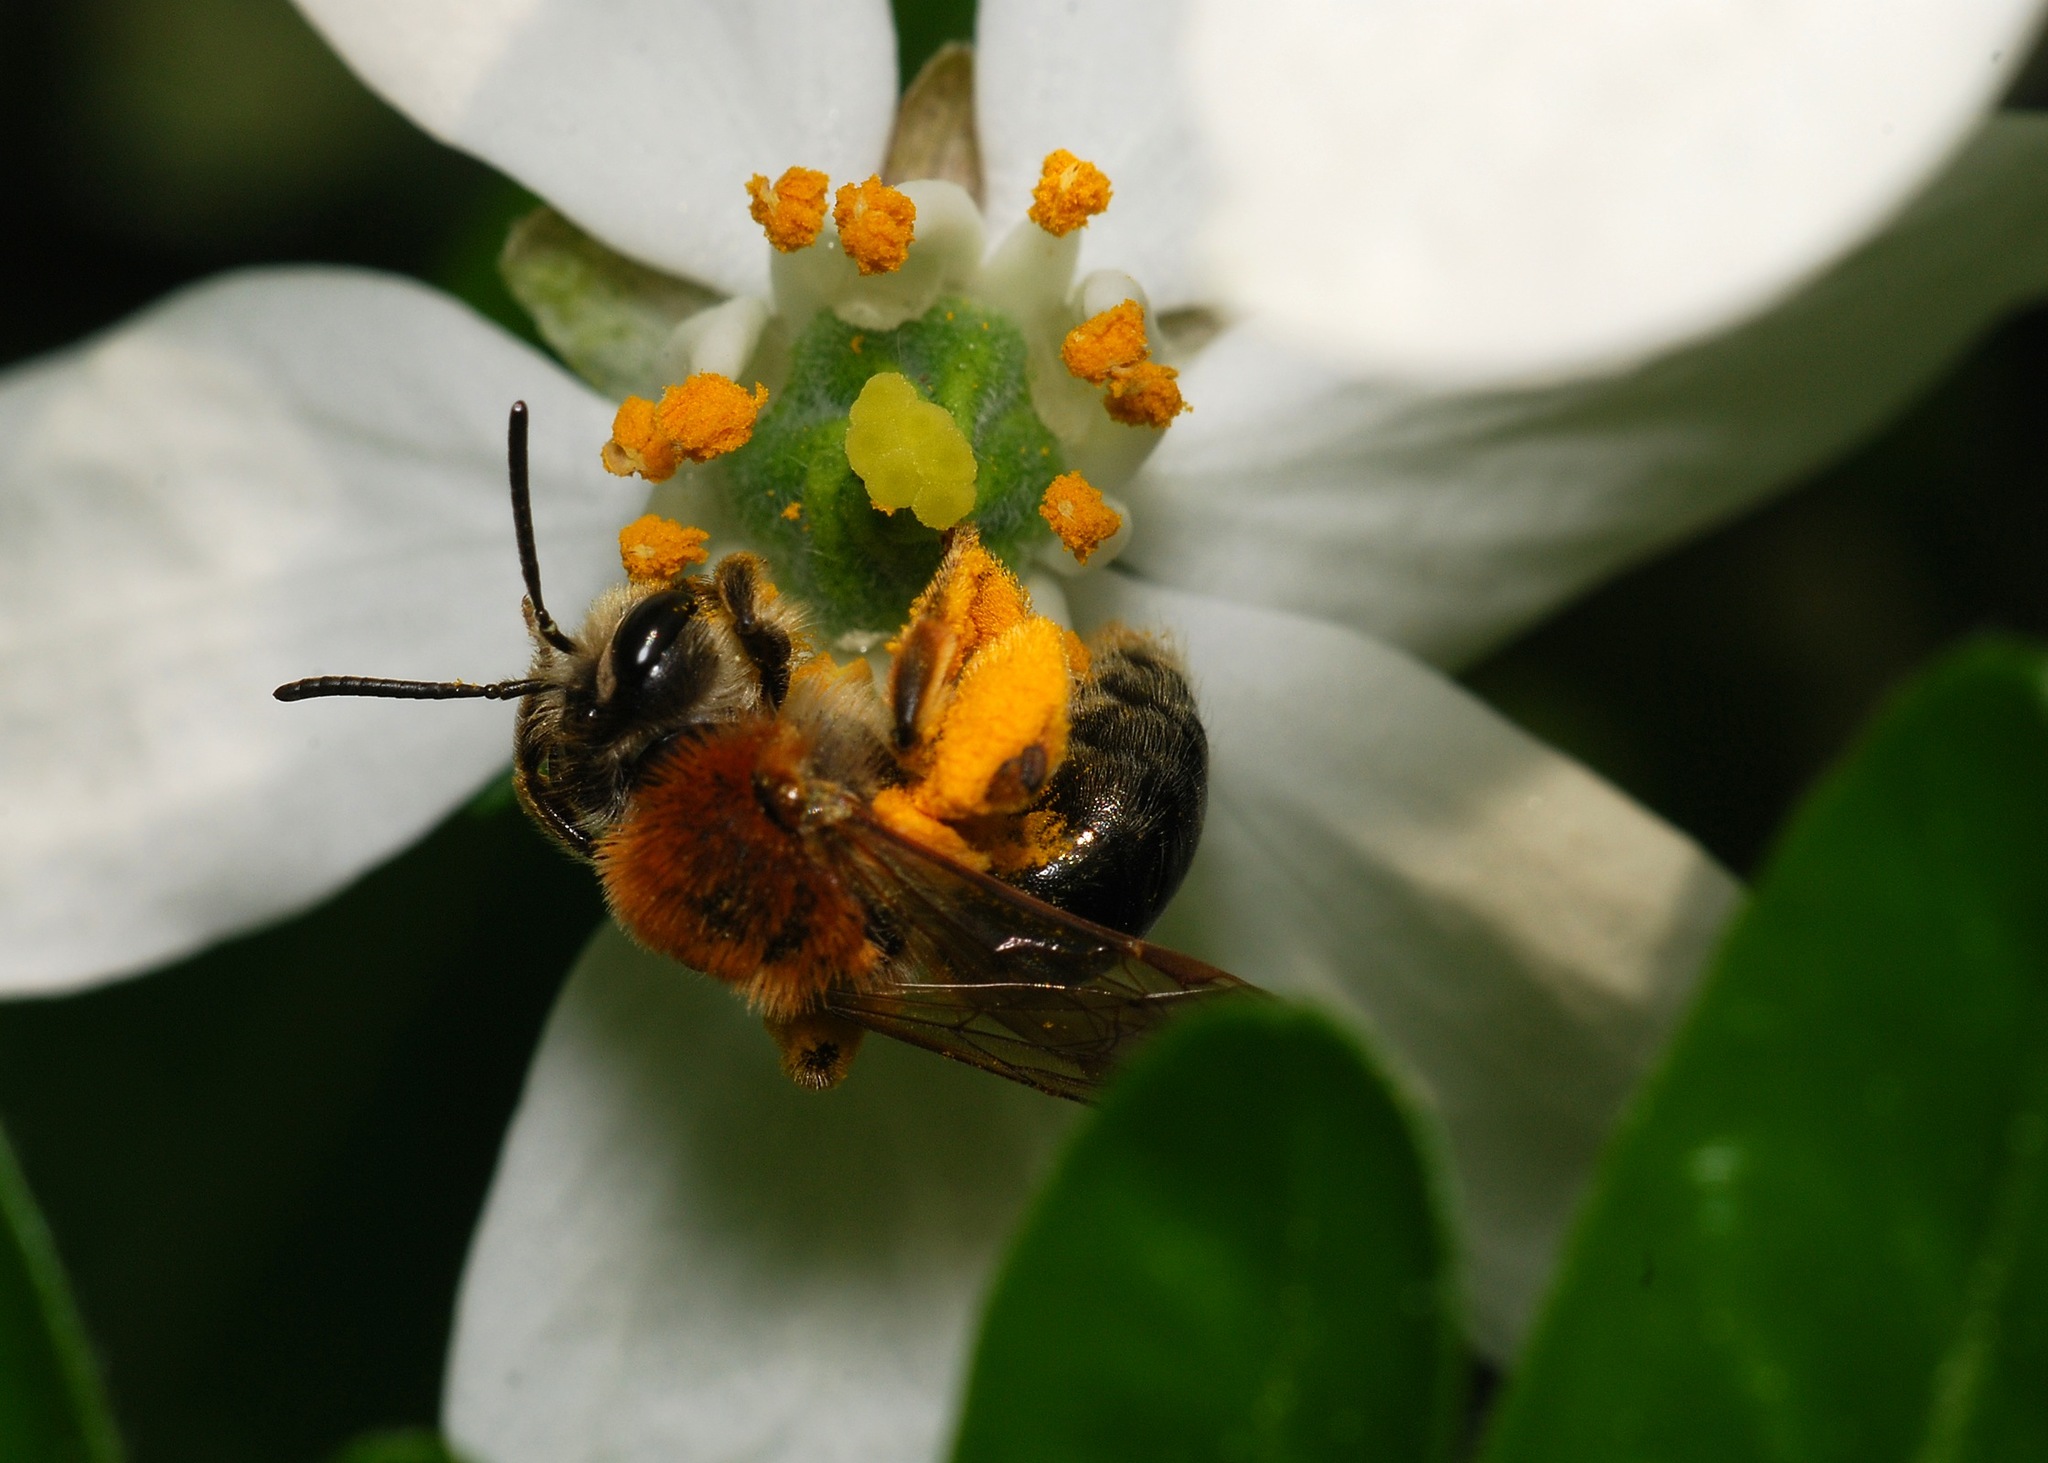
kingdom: Animalia
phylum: Arthropoda
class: Insecta
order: Hymenoptera
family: Andrenidae
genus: Andrena
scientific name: Andrena haemorrhoa
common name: Early mining bee
